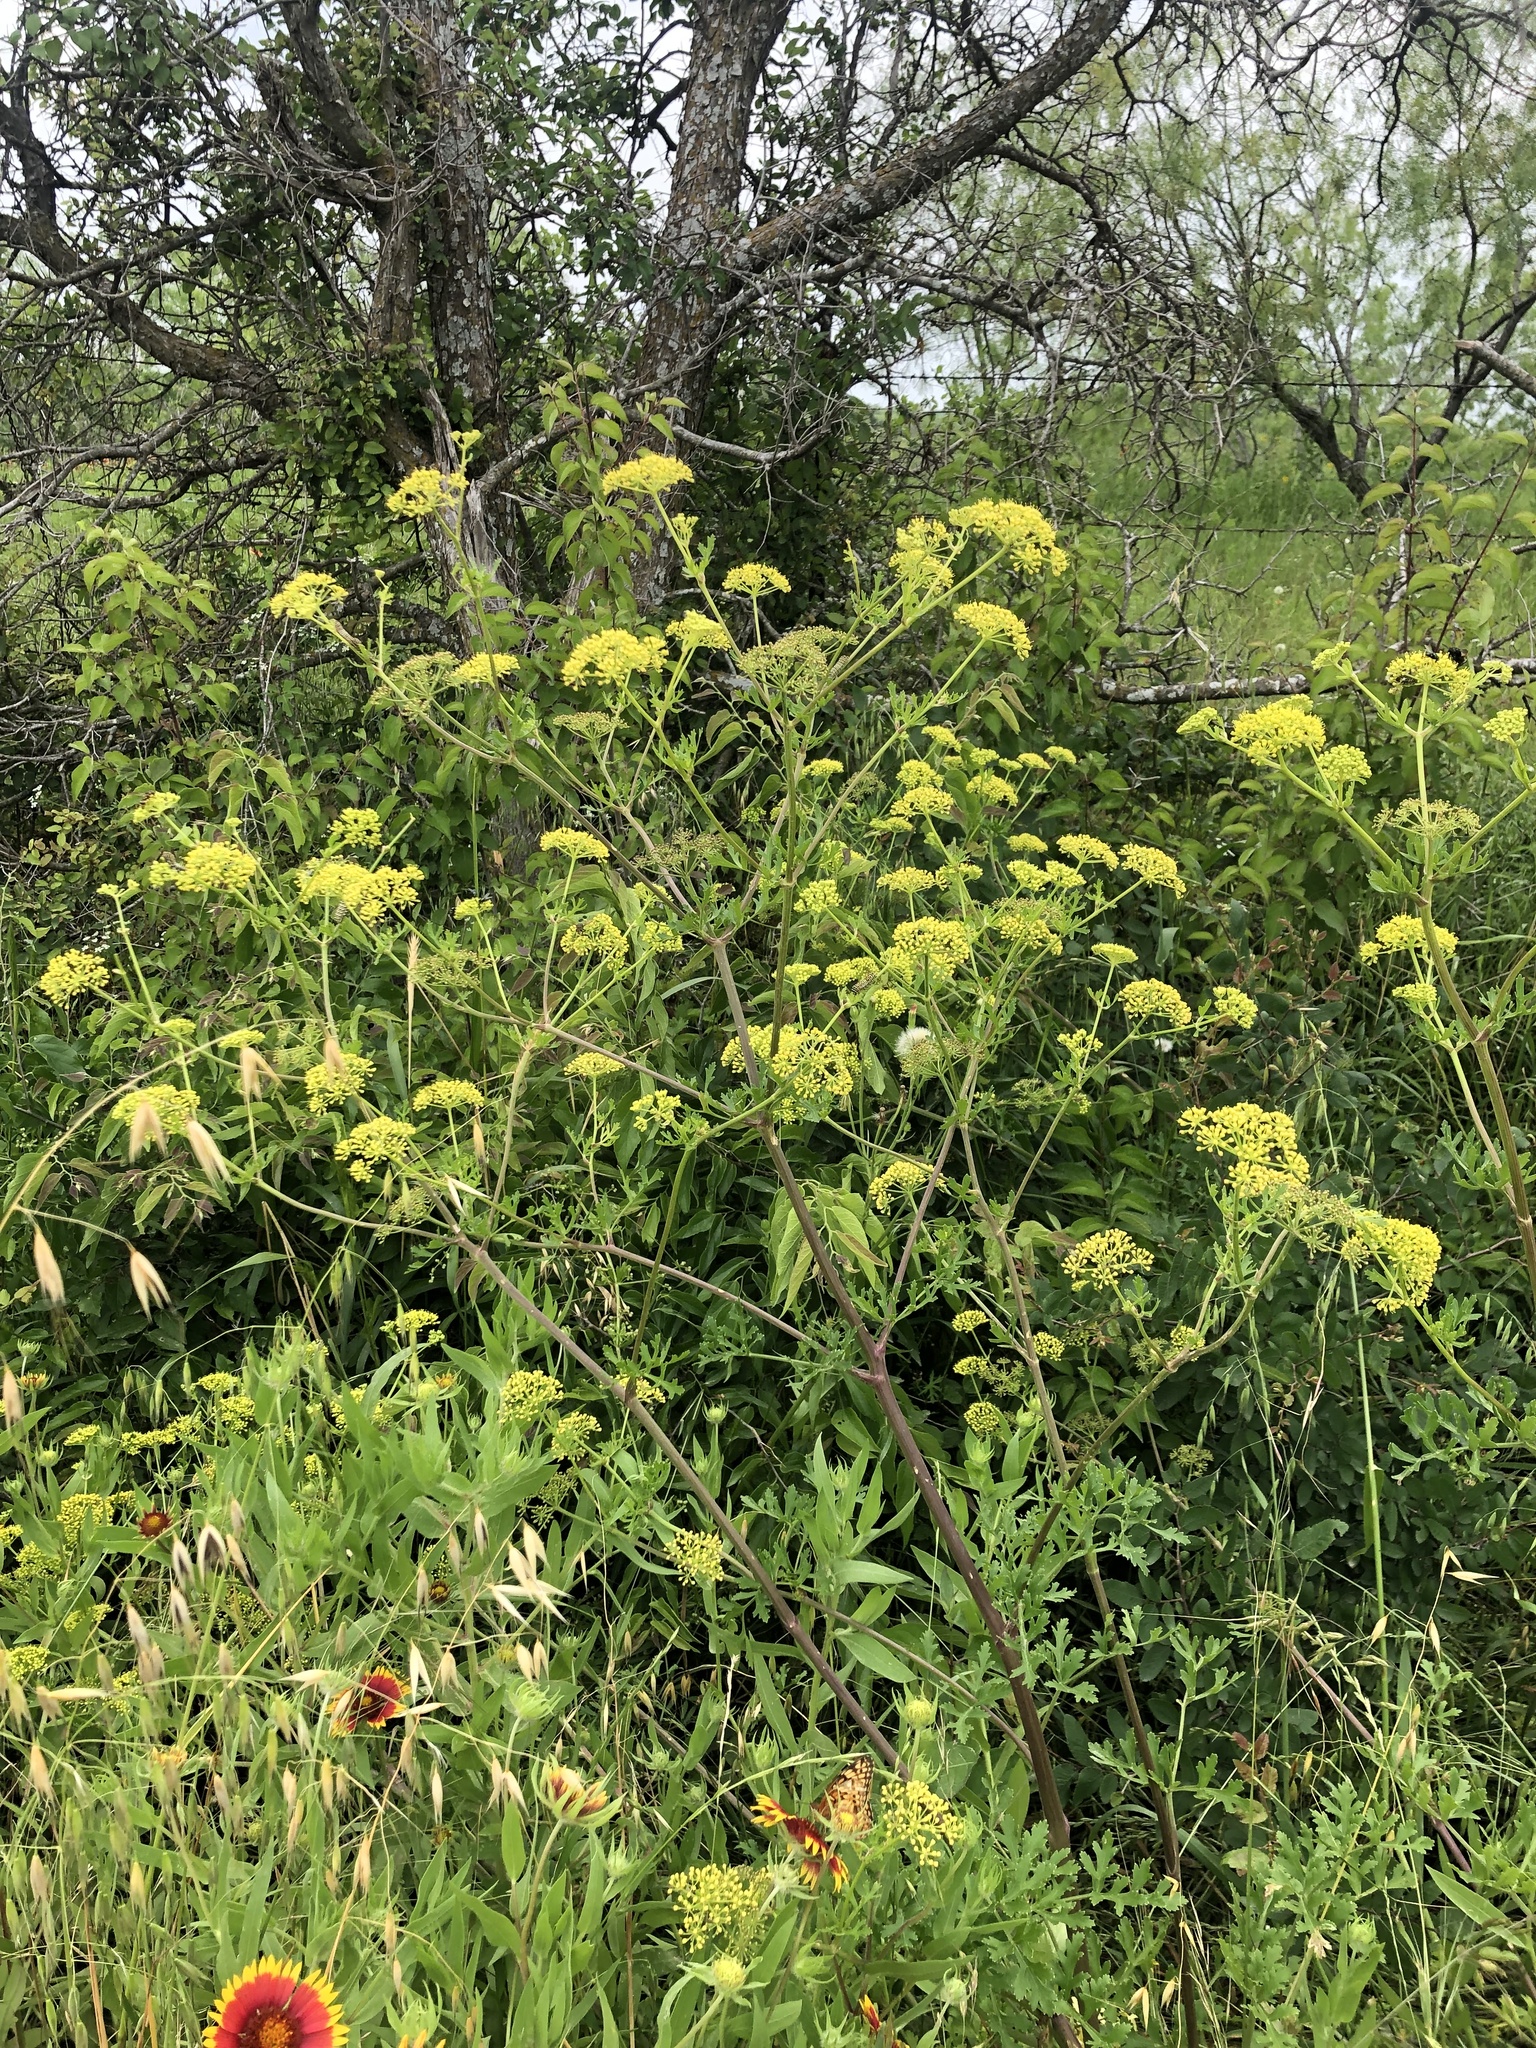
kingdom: Plantae
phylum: Tracheophyta
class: Magnoliopsida
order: Apiales
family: Apiaceae
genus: Polytaenia
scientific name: Polytaenia texana
